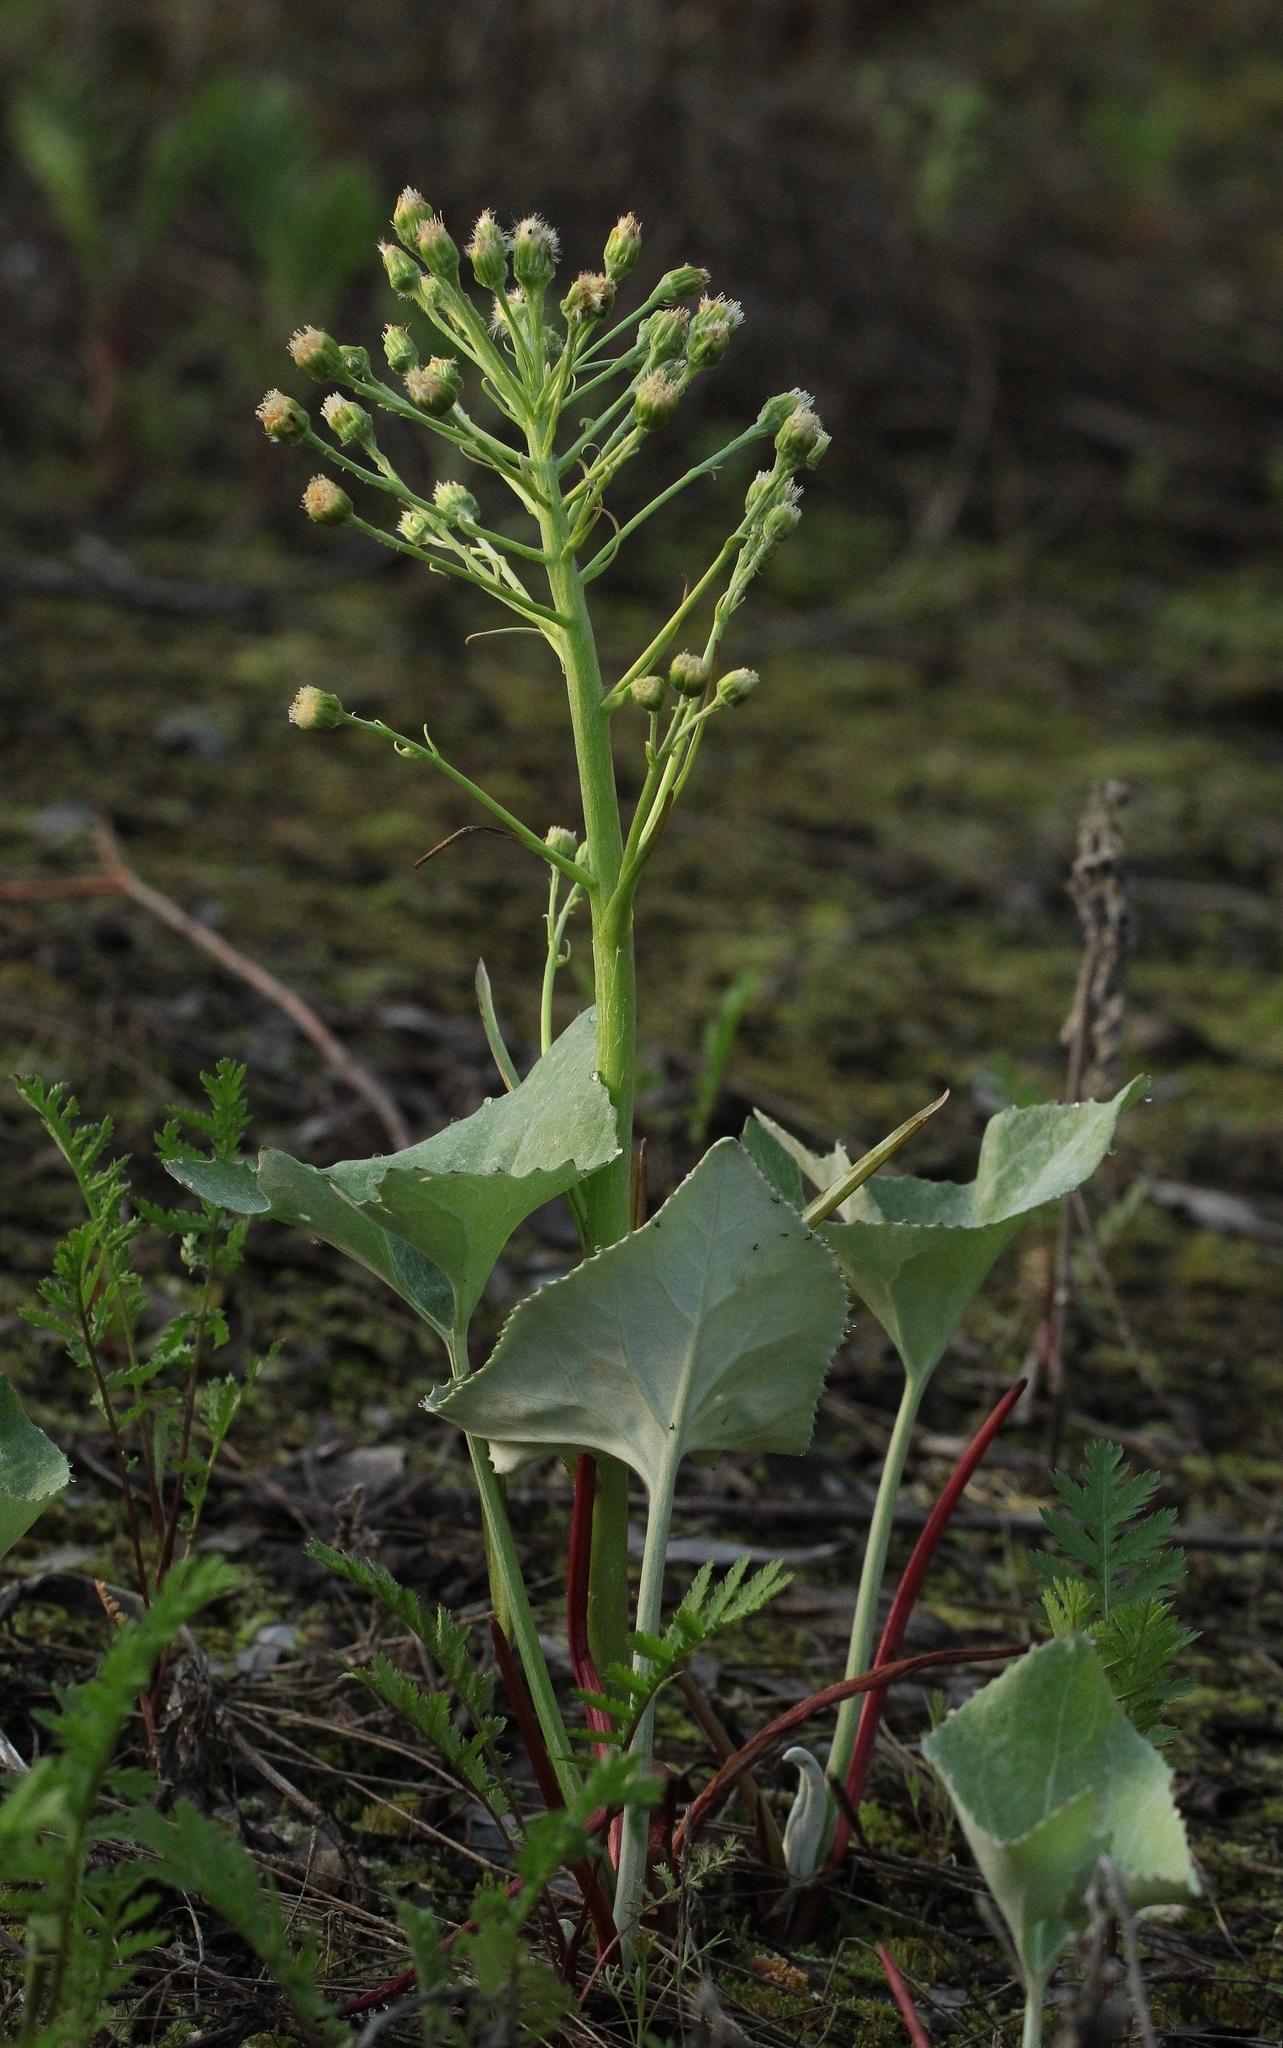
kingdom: Plantae
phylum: Tracheophyta
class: Magnoliopsida
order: Asterales
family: Asteraceae
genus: Petasites
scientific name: Petasites spurius
